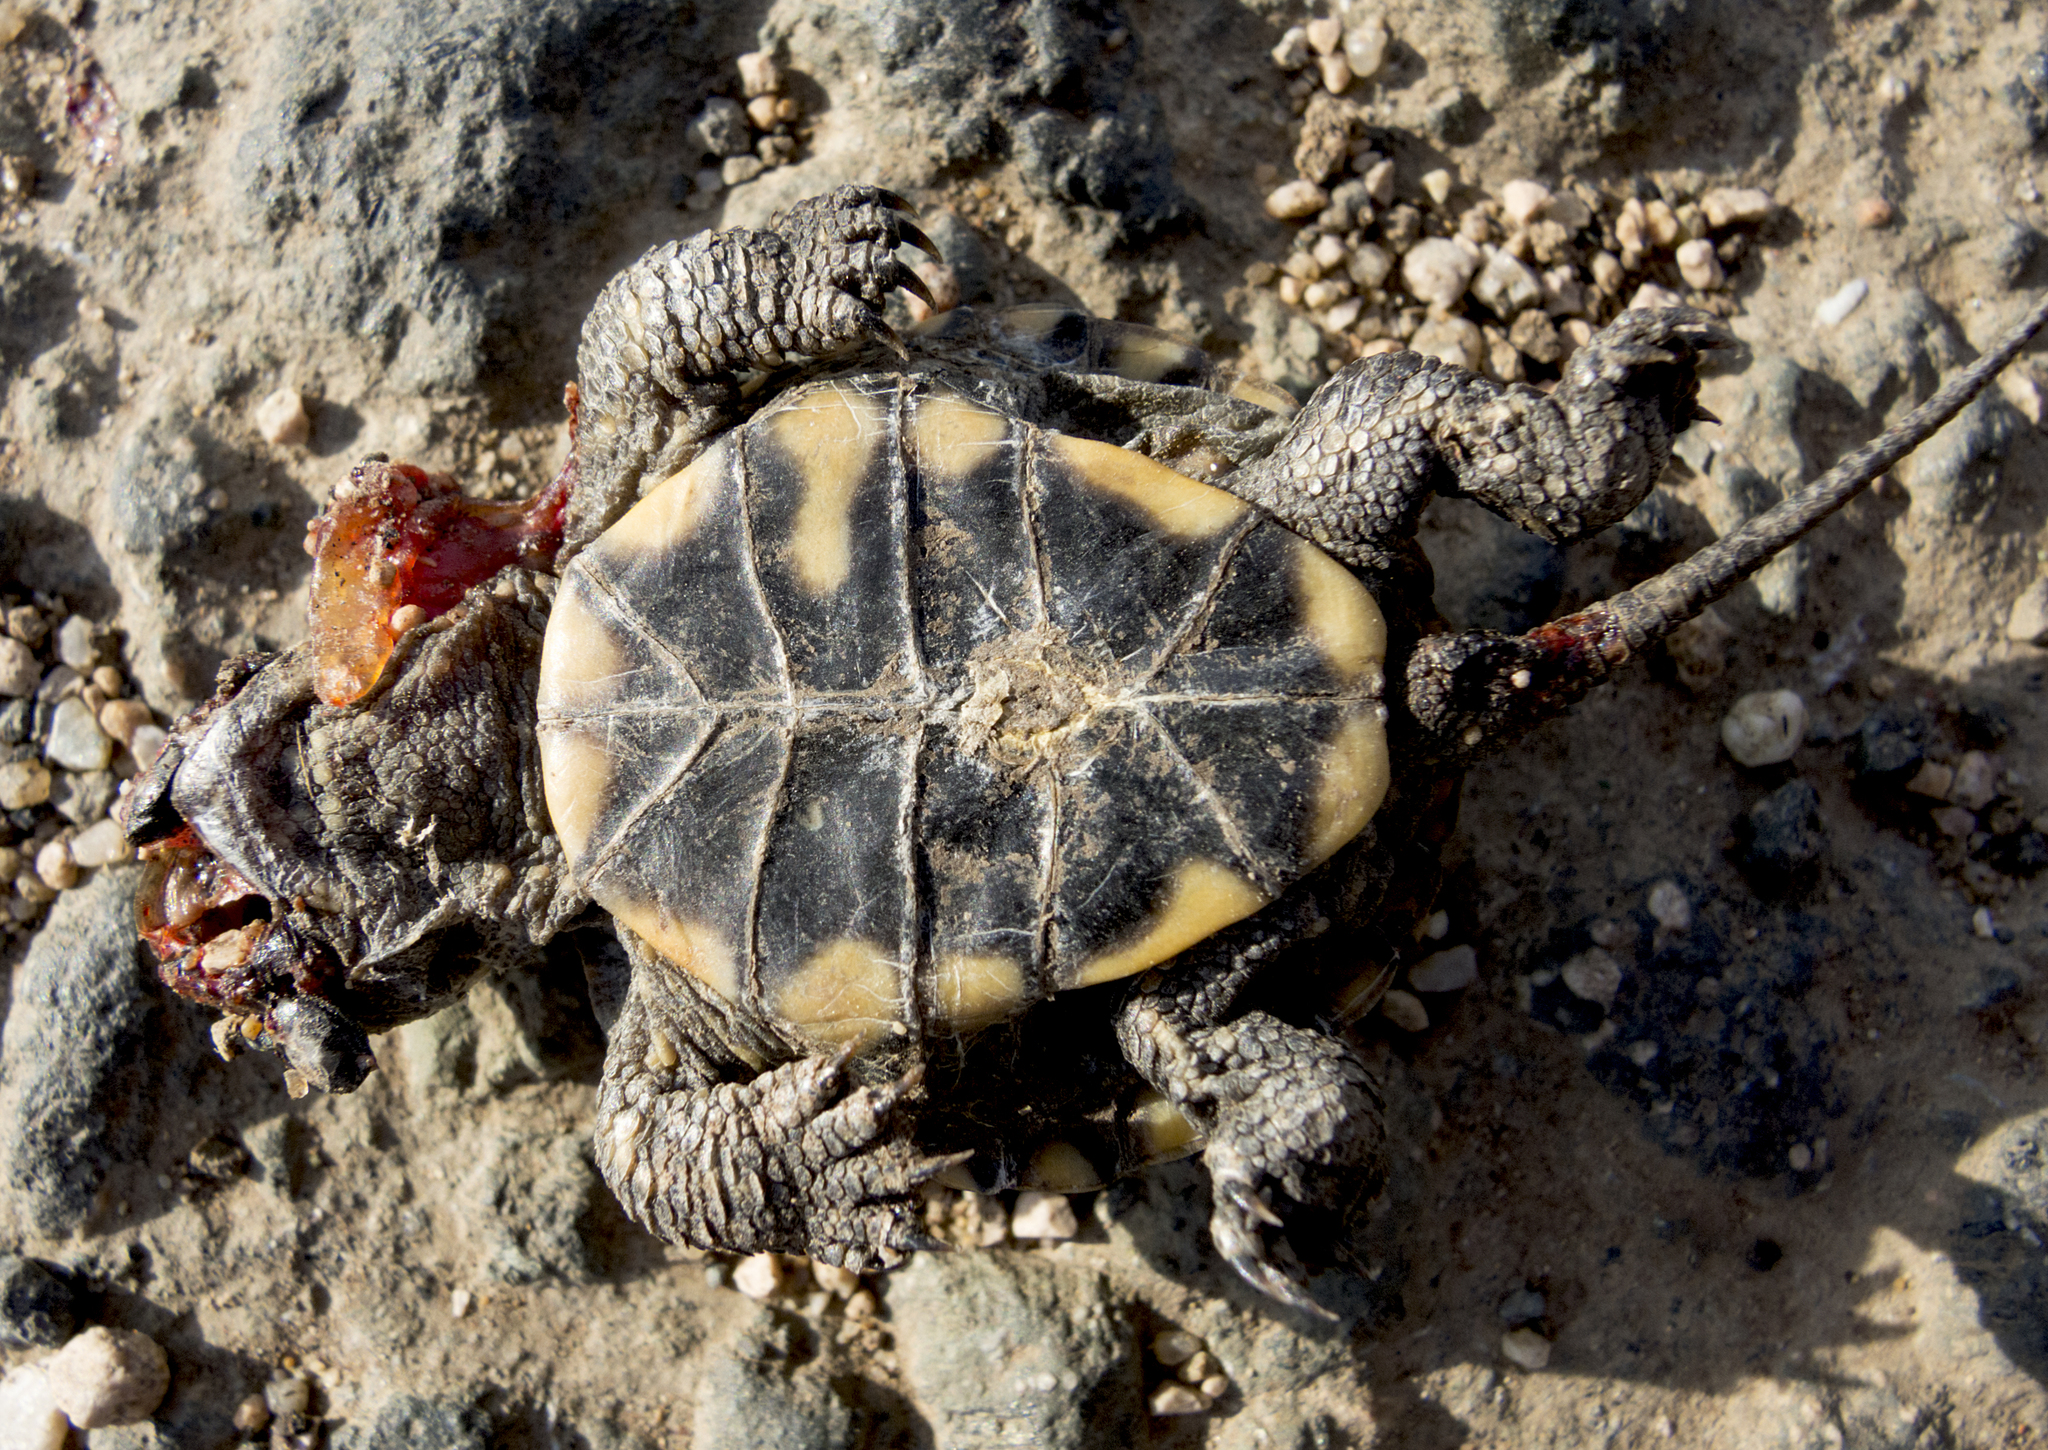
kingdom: Animalia
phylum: Chordata
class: Testudines
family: Emydidae
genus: Emys
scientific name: Emys orbicularis
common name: European pond turtle
